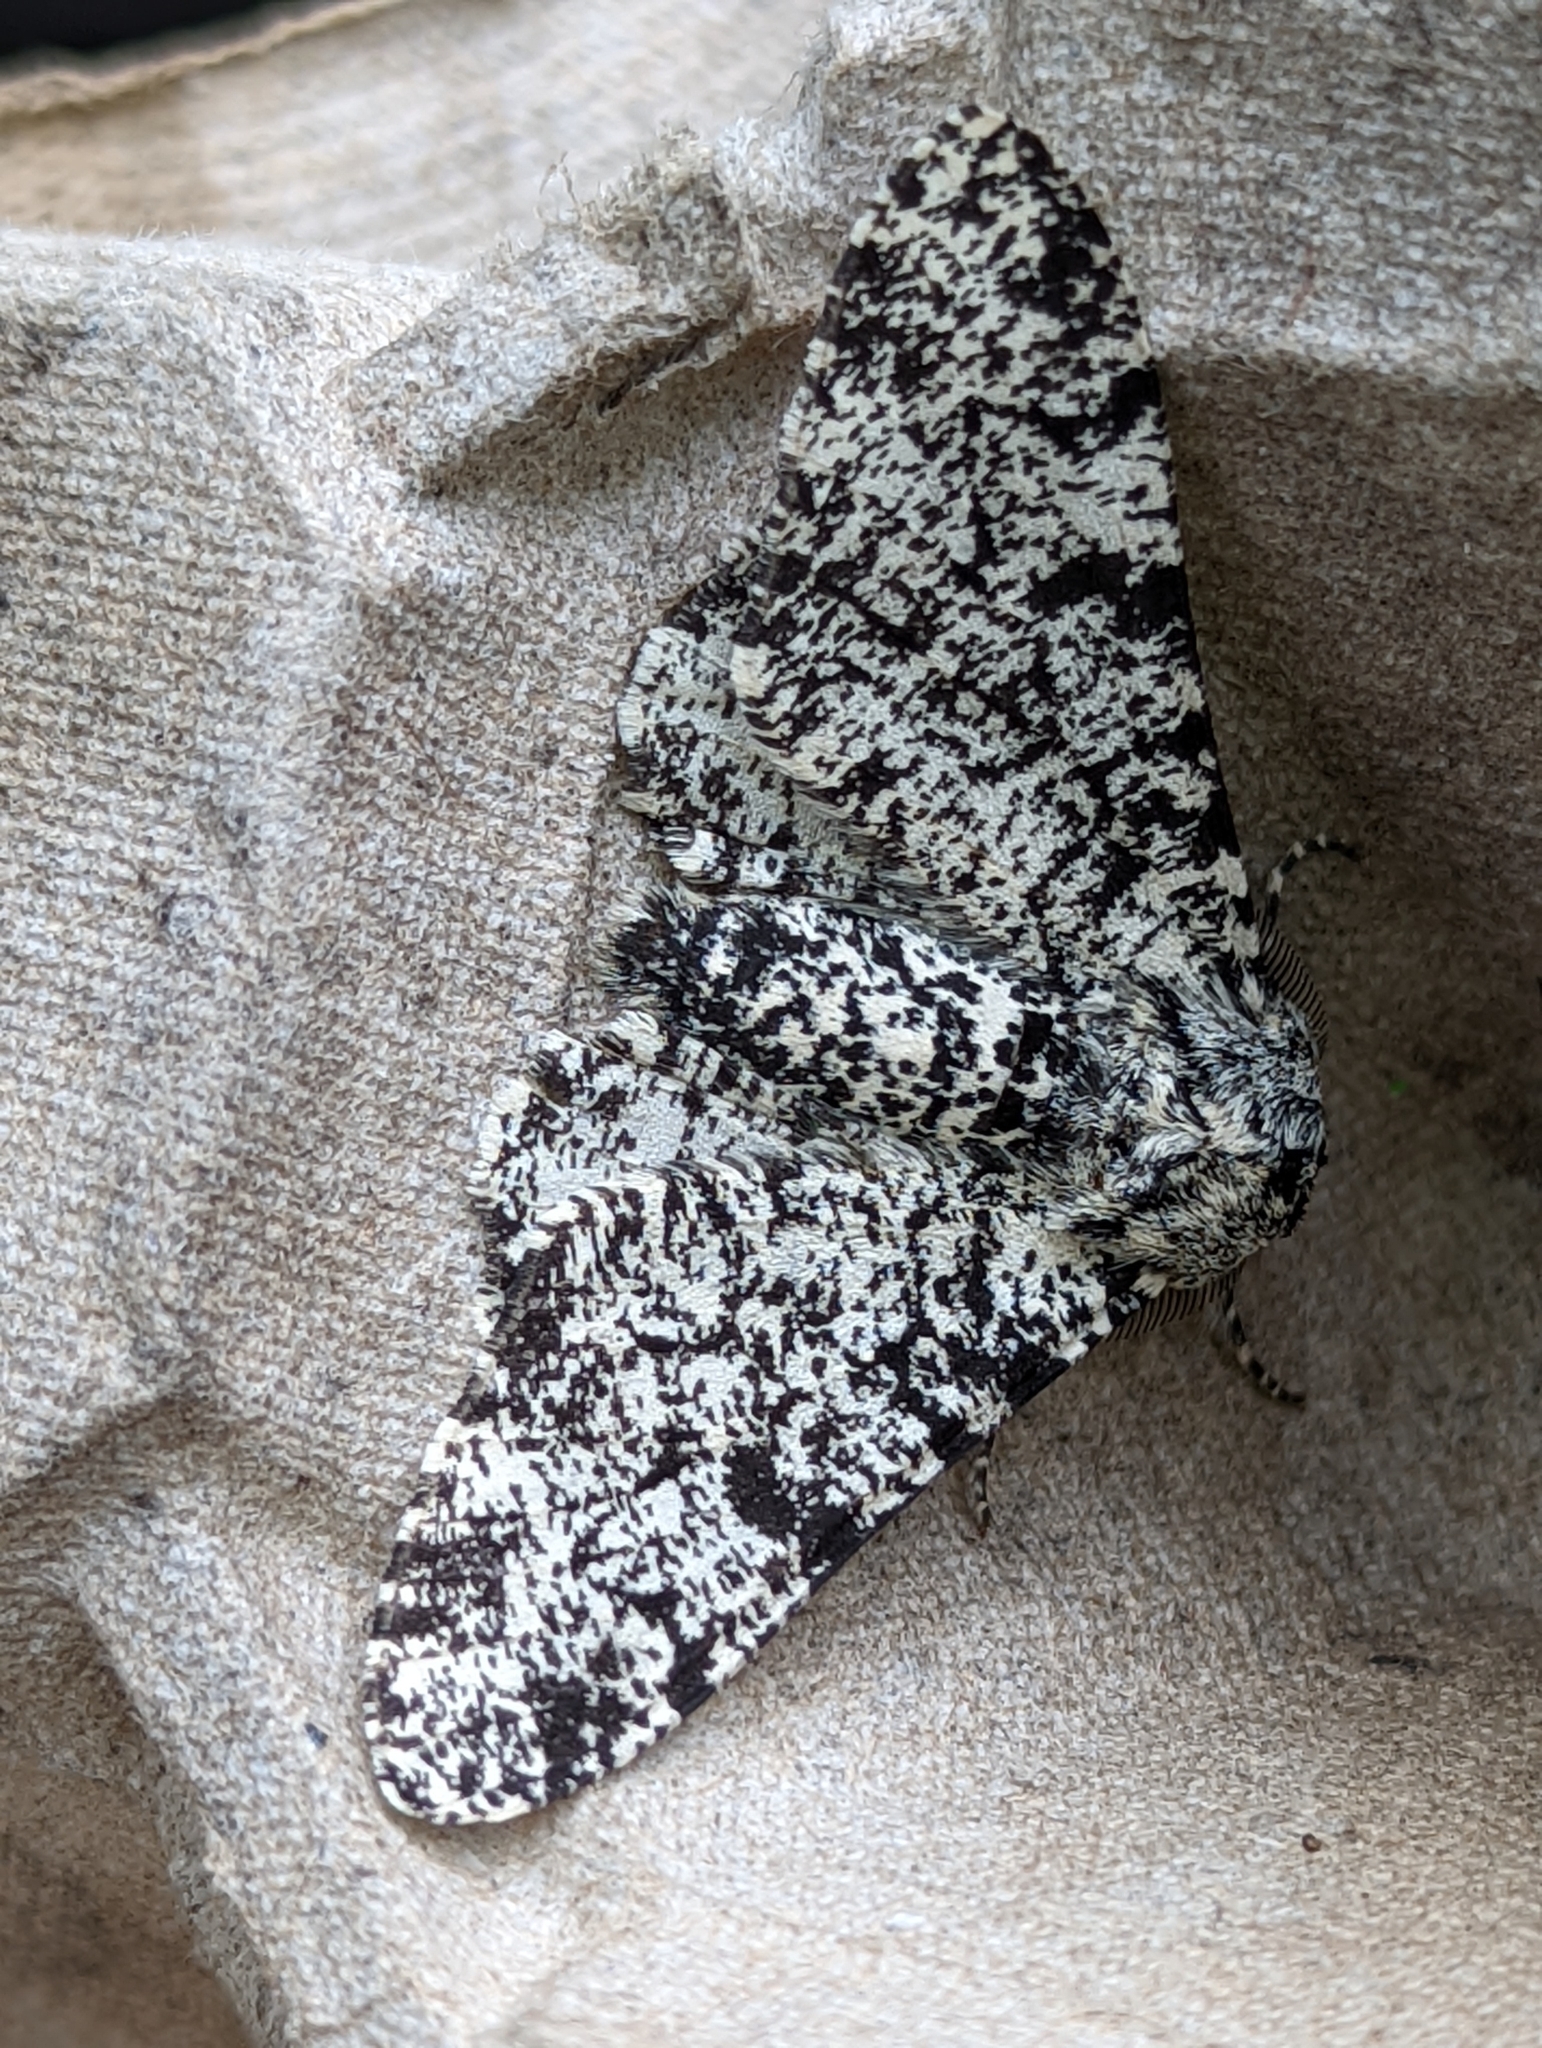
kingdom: Animalia
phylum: Arthropoda
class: Insecta
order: Lepidoptera
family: Geometridae
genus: Biston
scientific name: Biston betularia
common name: Peppered moth
